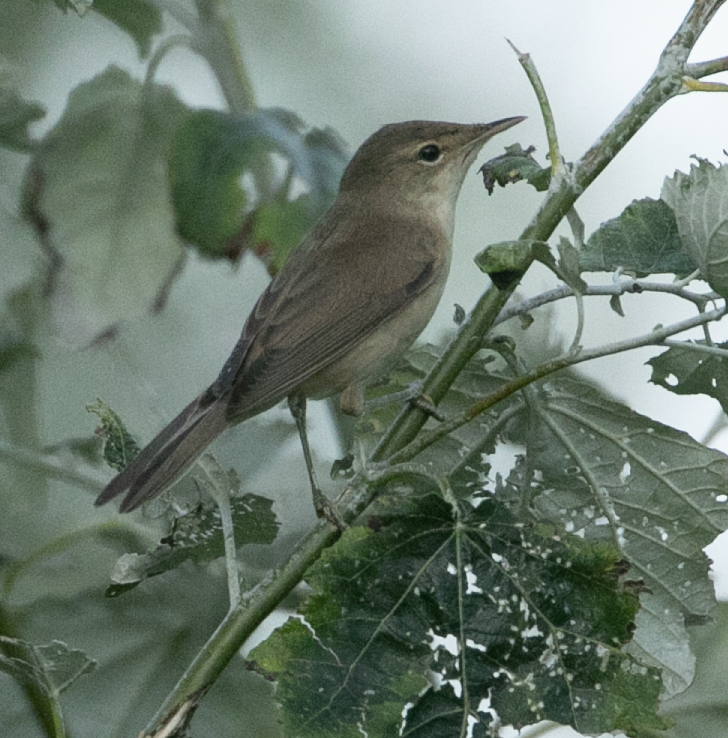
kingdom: Animalia
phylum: Chordata
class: Aves
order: Passeriformes
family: Acrocephalidae
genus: Acrocephalus
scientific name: Acrocephalus scirpaceus
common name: Eurasian reed warbler
